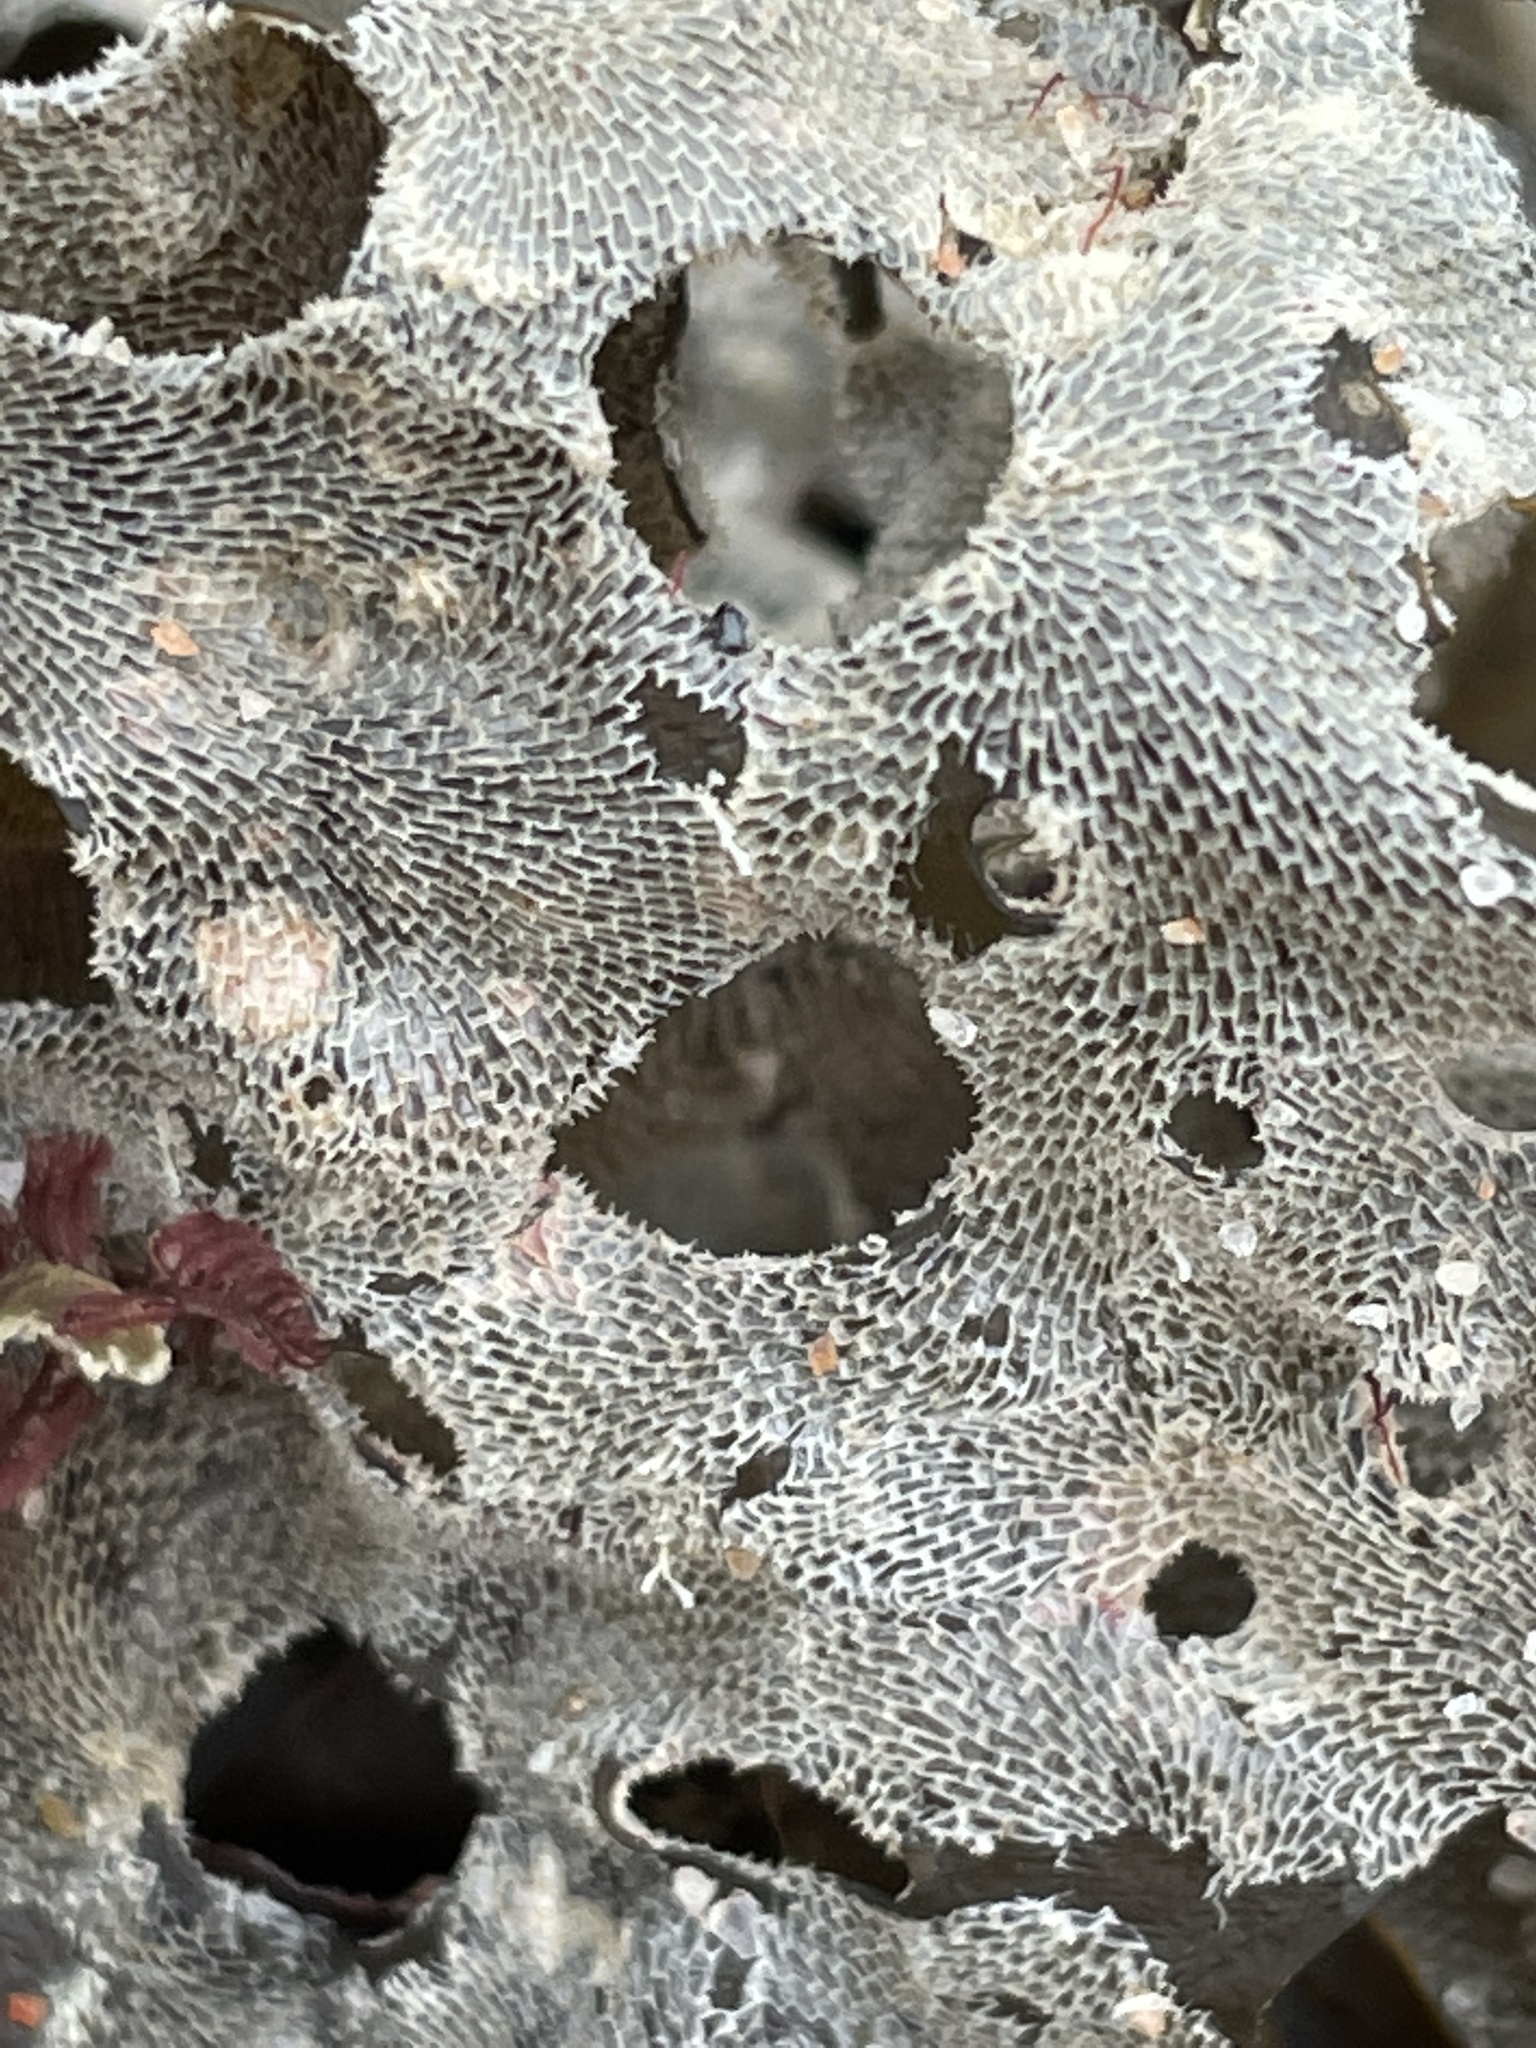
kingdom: Animalia
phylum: Bryozoa
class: Gymnolaemata
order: Cheilostomatida
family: Membraniporidae
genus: Membranipora
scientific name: Membranipora membranacea
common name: Sea mat
